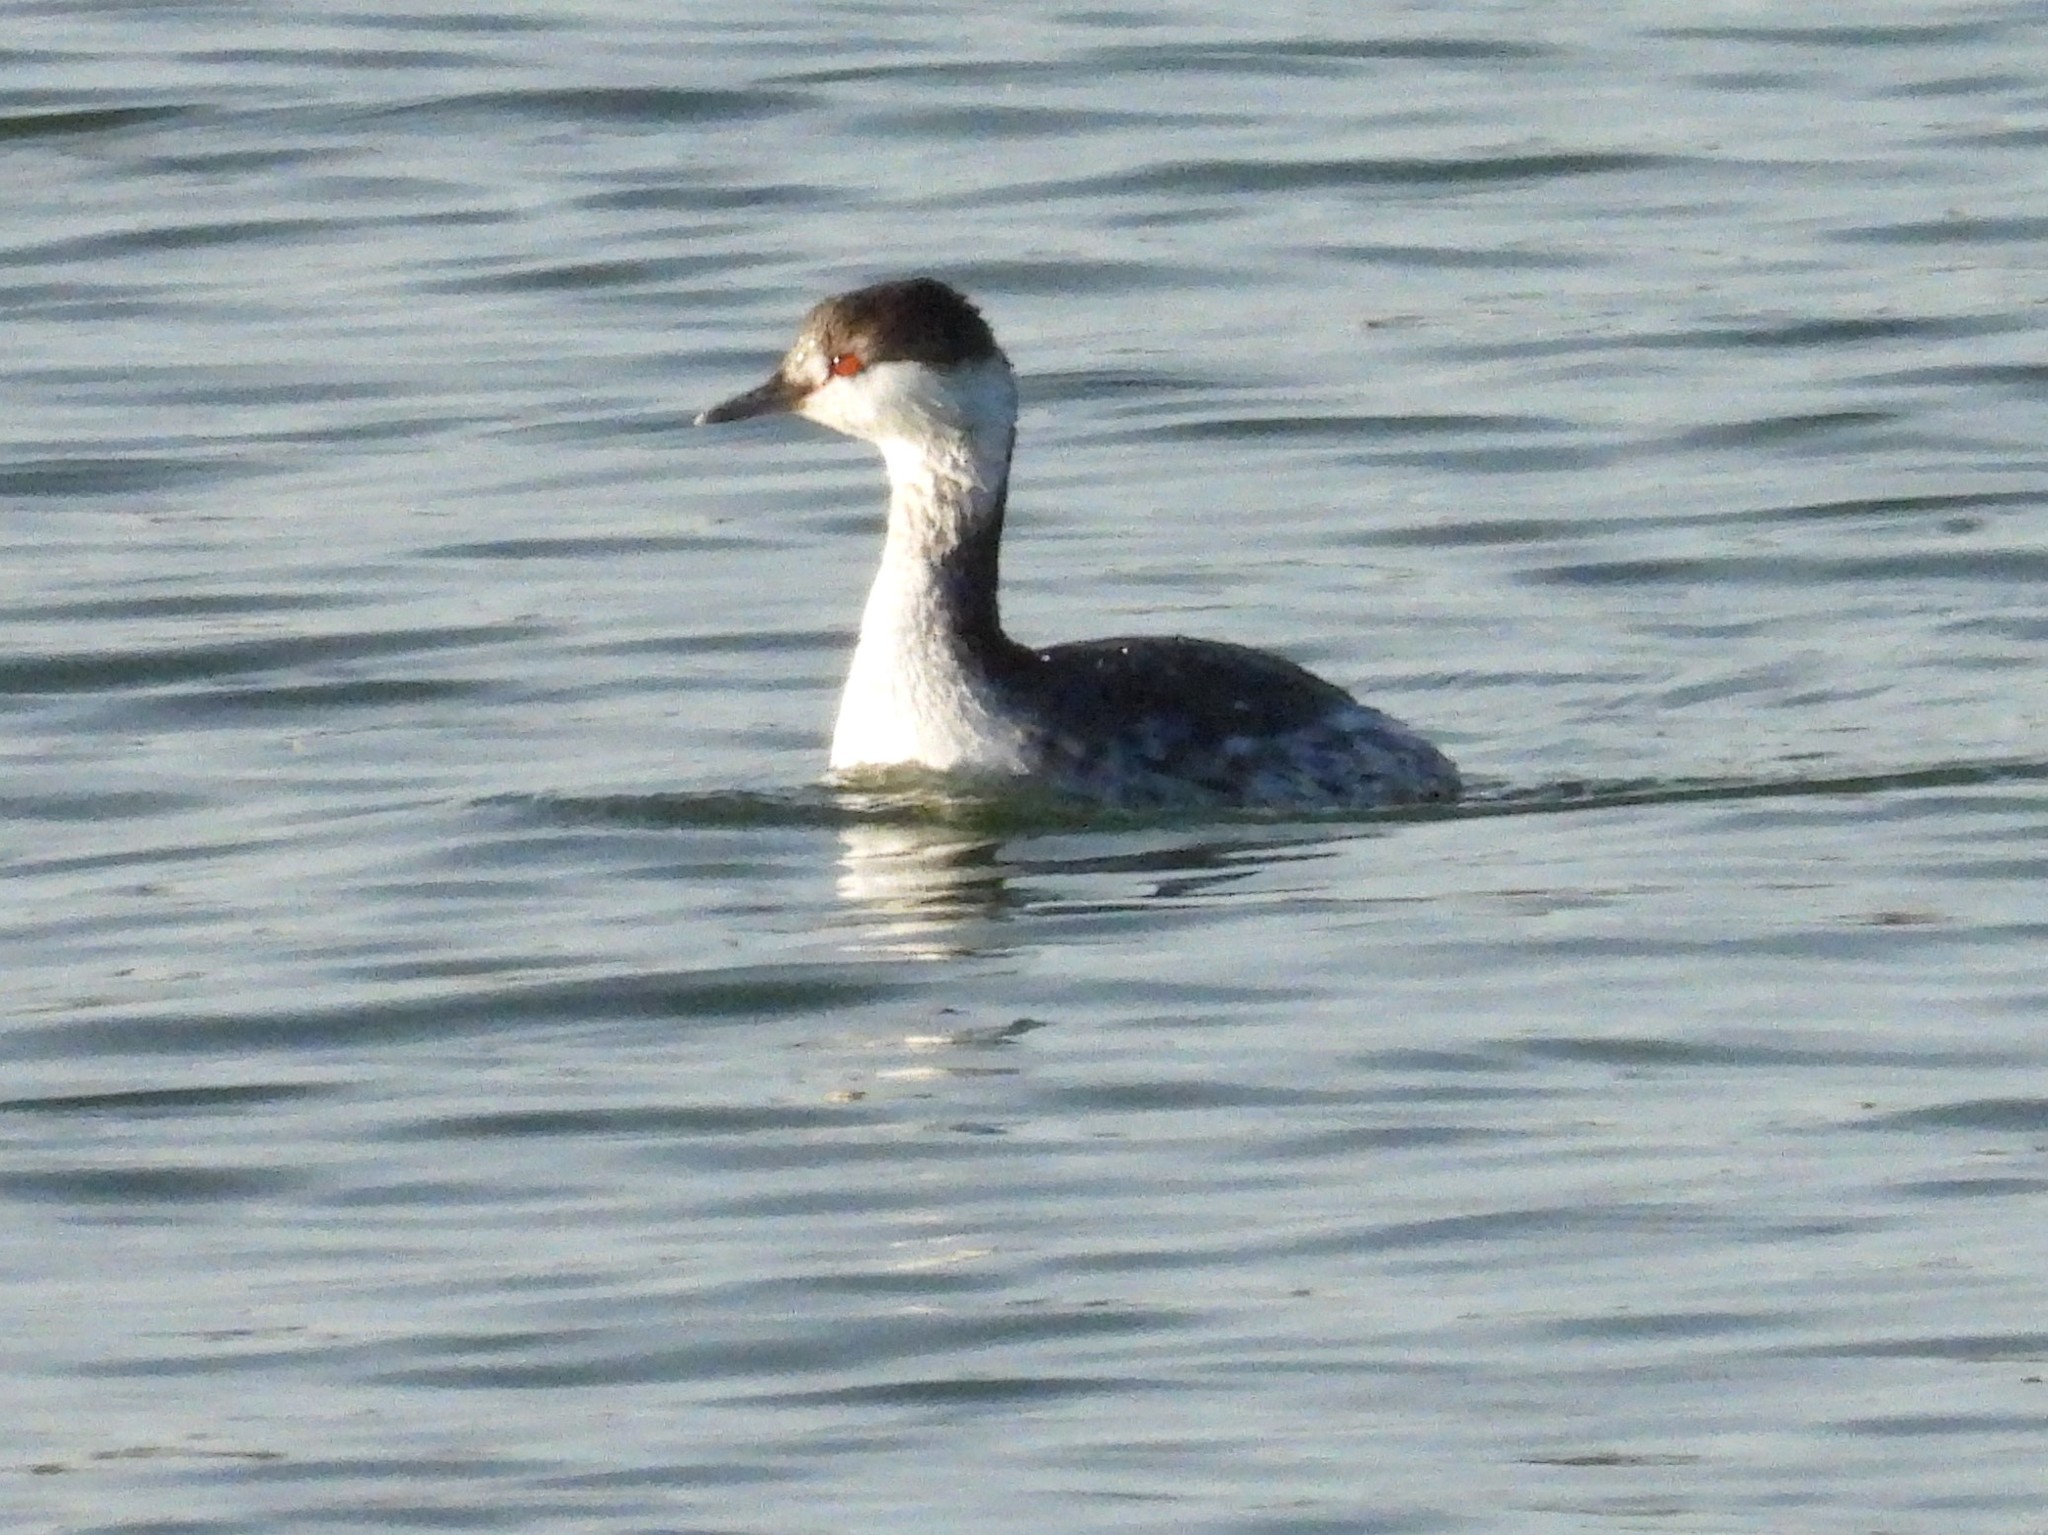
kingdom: Animalia
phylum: Chordata
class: Aves
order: Podicipediformes
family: Podicipedidae
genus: Podiceps
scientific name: Podiceps auritus
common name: Horned grebe
